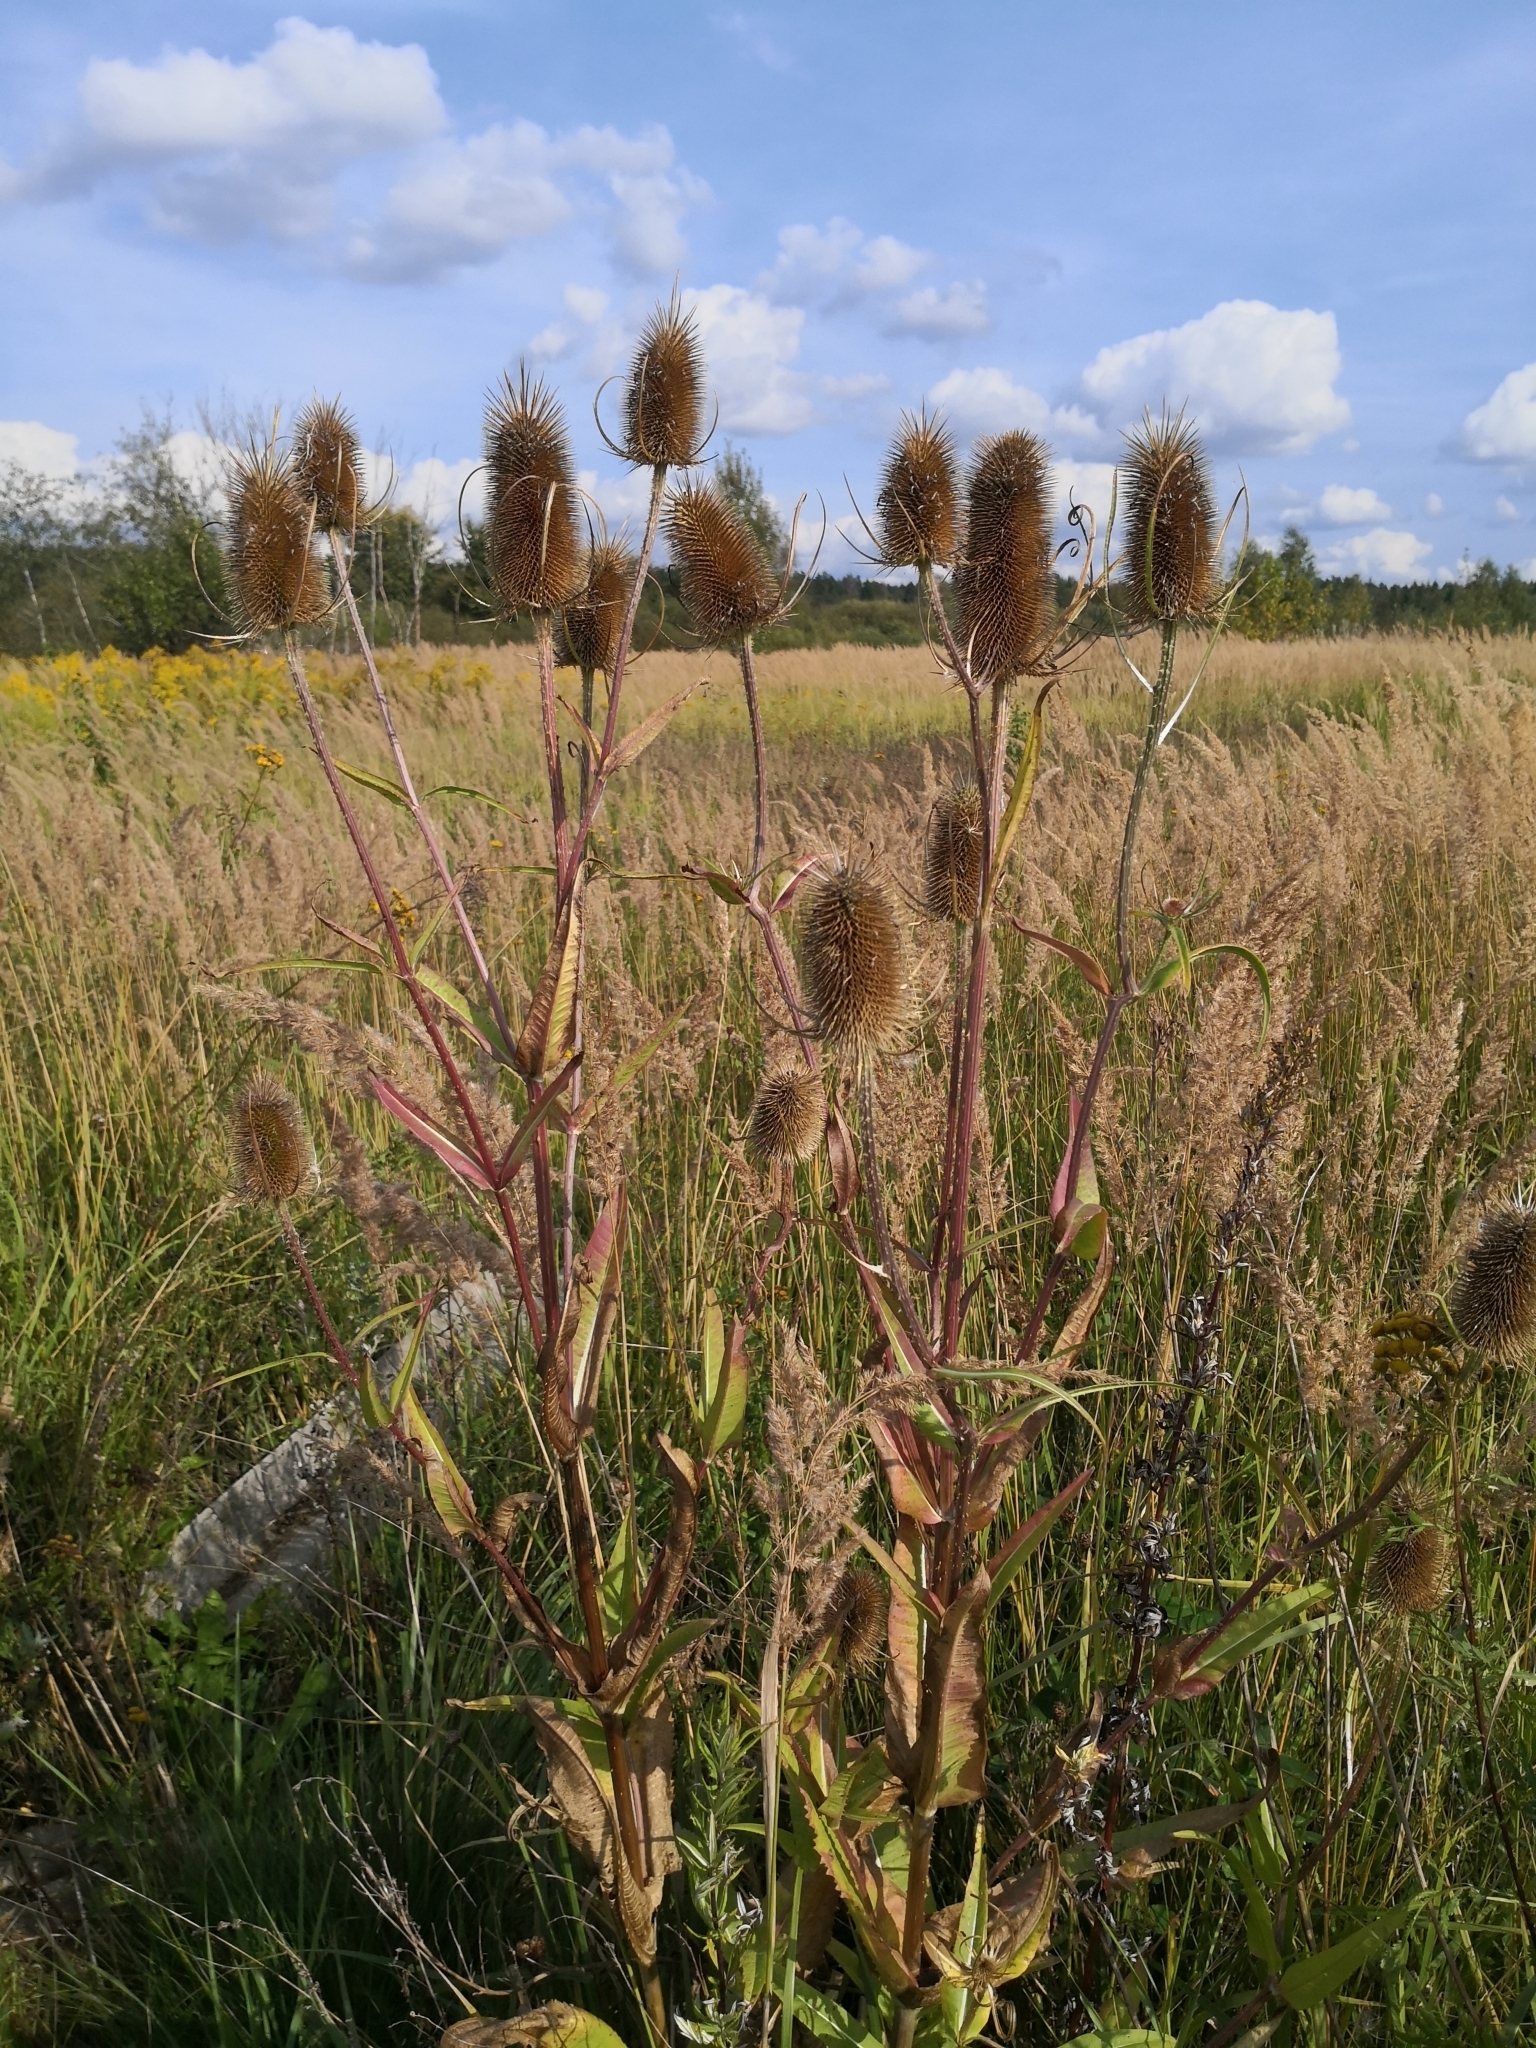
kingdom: Plantae
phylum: Tracheophyta
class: Magnoliopsida
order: Dipsacales
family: Caprifoliaceae
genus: Dipsacus
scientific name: Dipsacus fullonum
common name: Teasel
